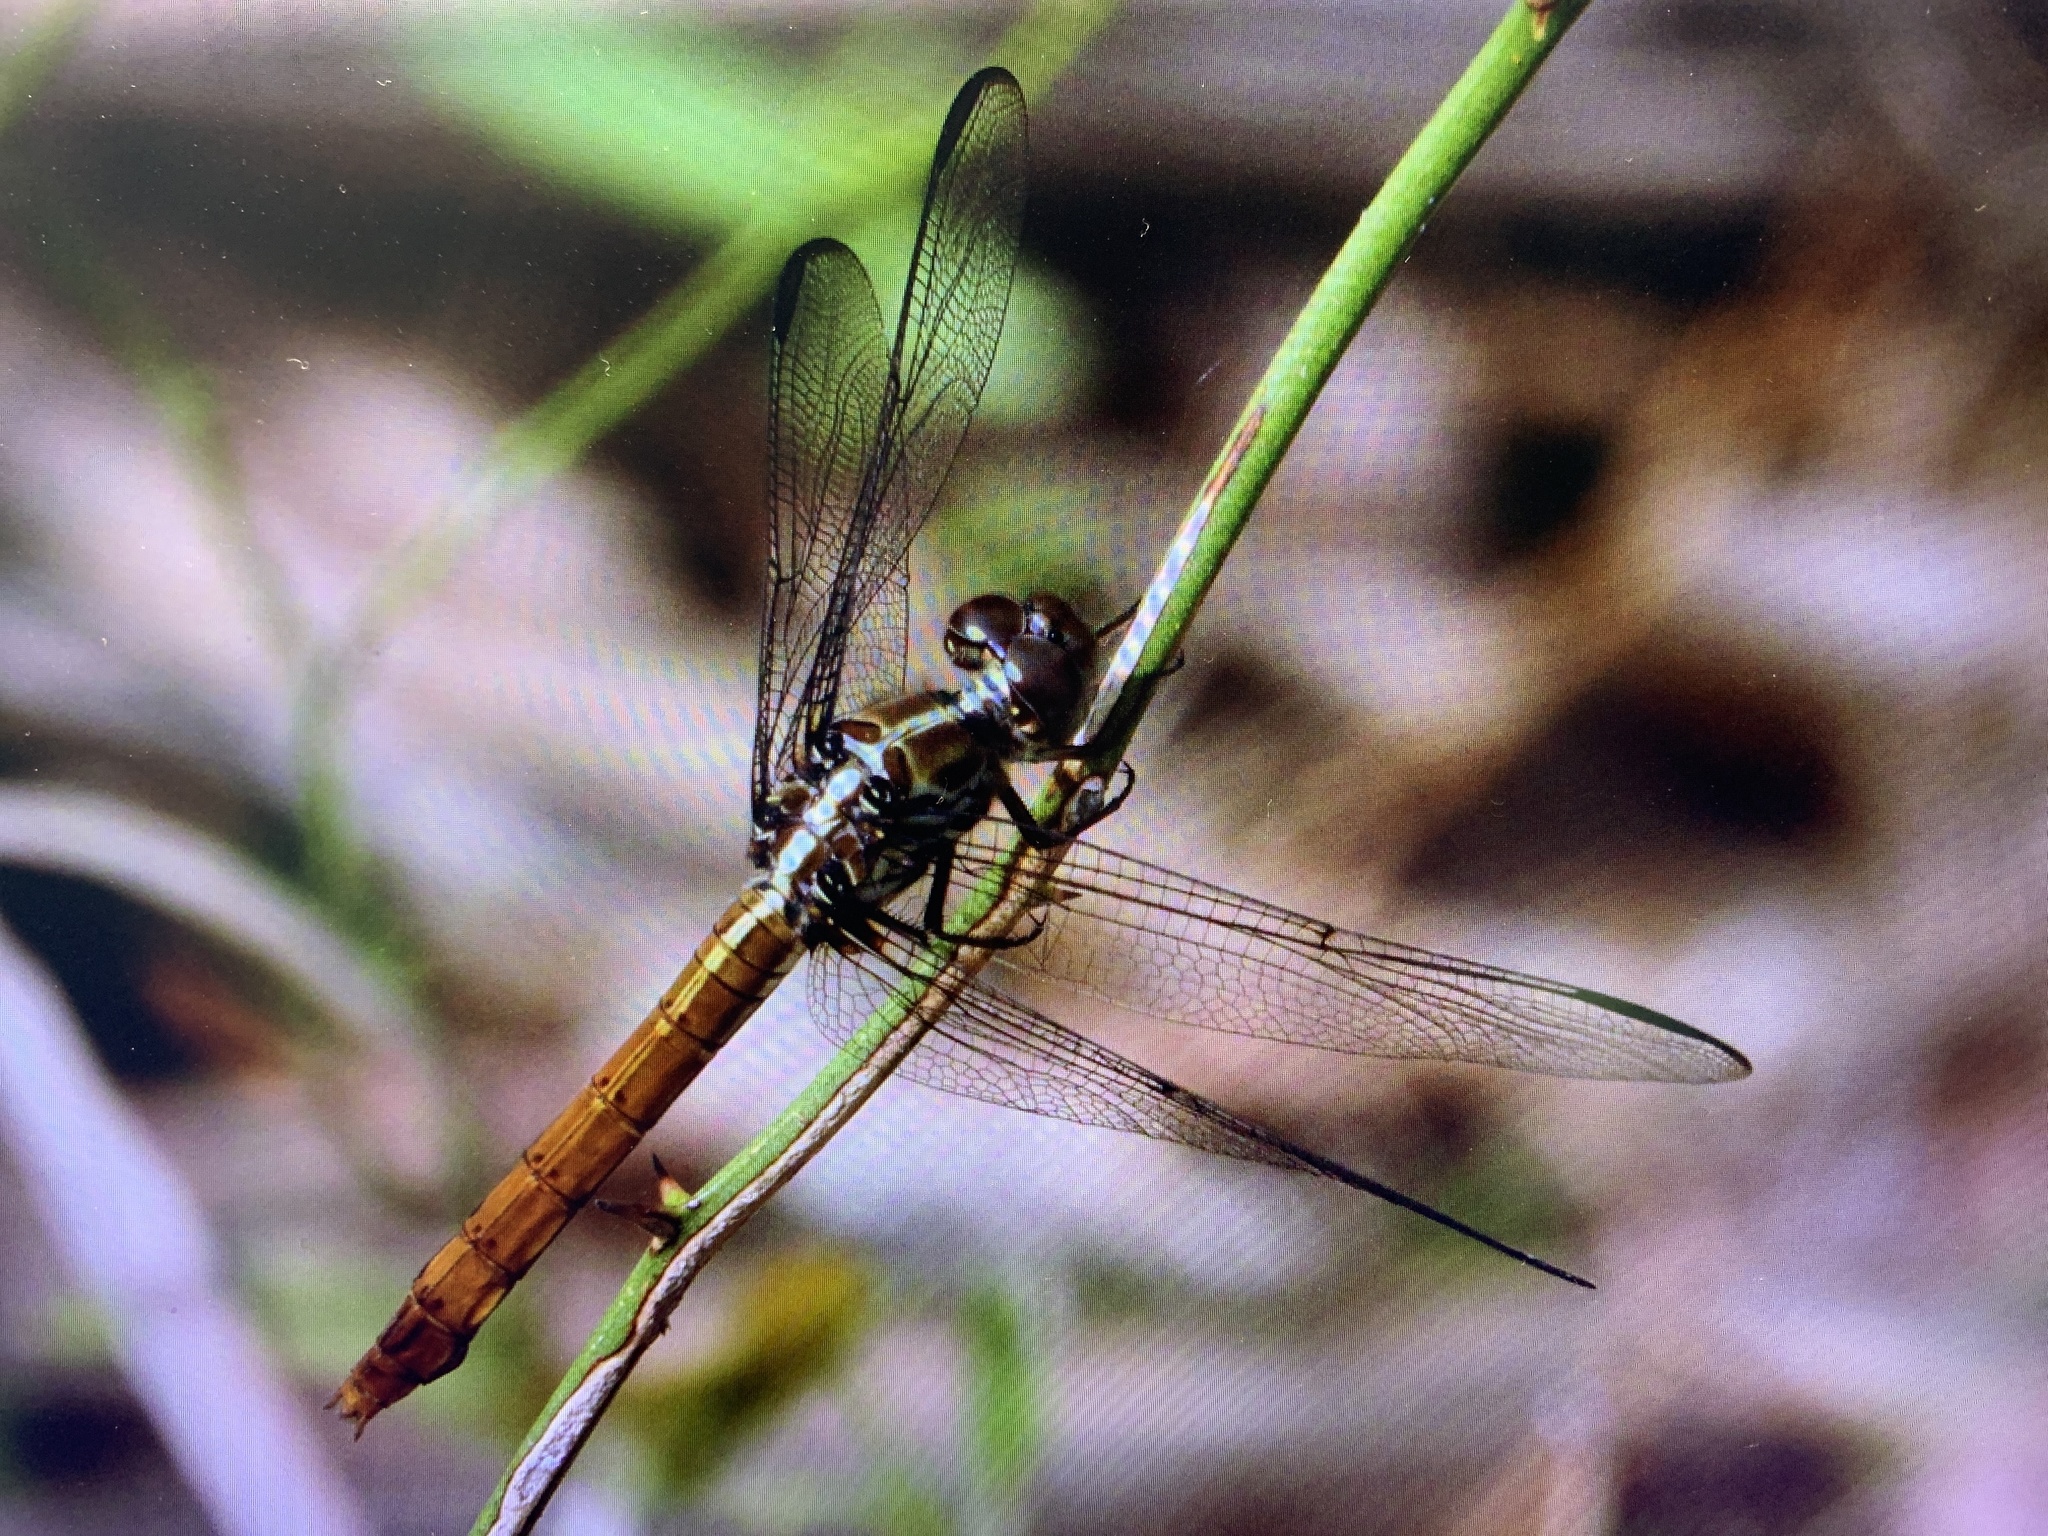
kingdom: Animalia
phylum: Arthropoda
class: Insecta
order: Odonata
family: Libellulidae
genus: Orthemis
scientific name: Orthemis ferruginea
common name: Roseate skimmer
